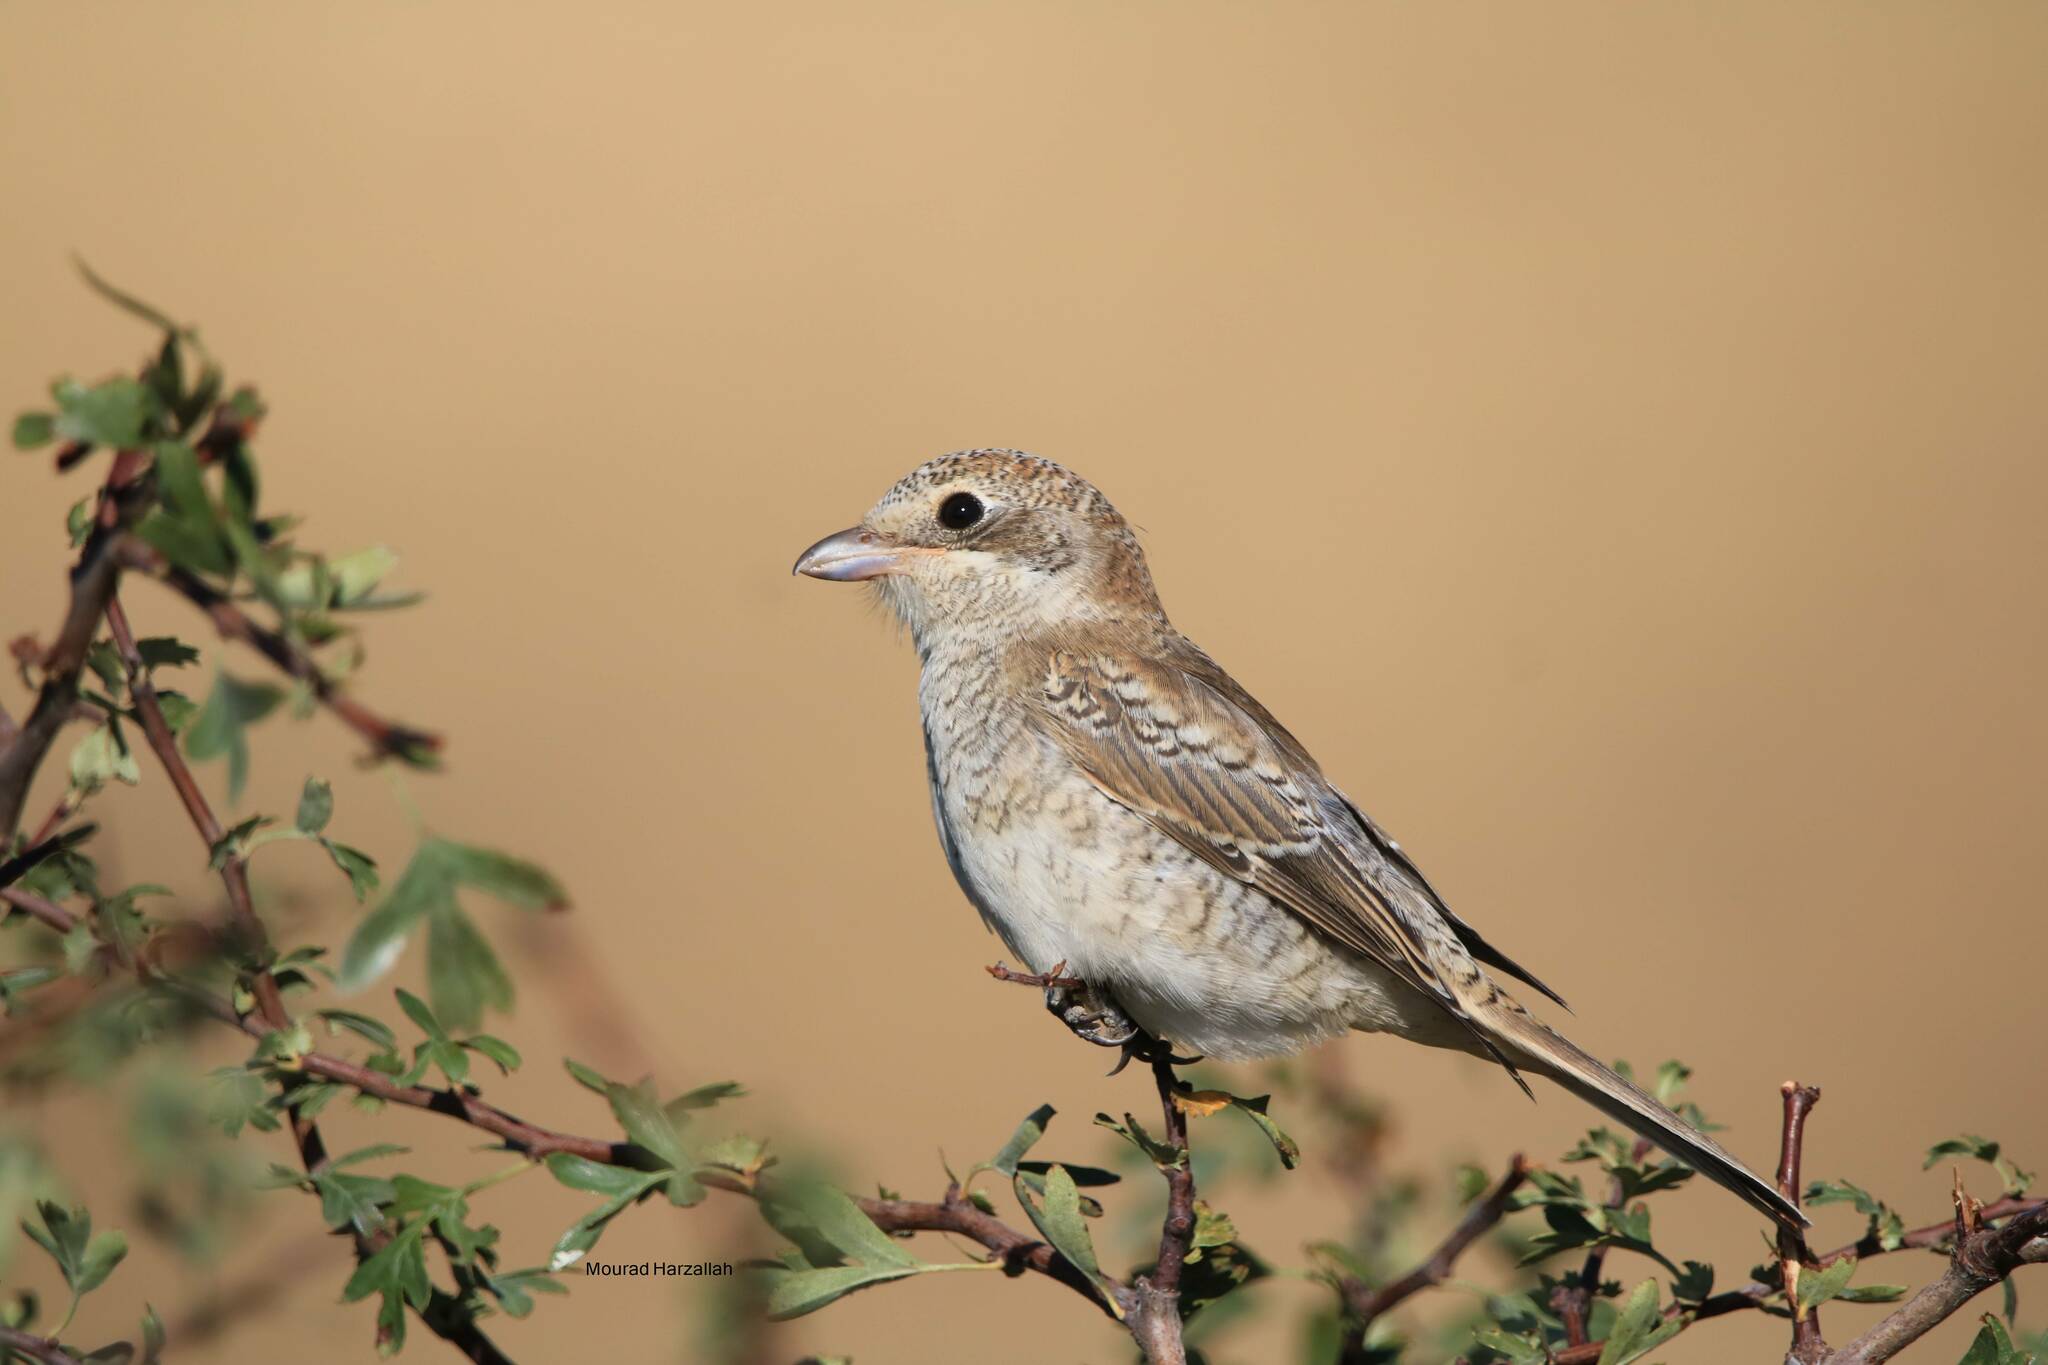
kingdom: Animalia
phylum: Chordata
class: Aves
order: Passeriformes
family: Laniidae
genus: Lanius
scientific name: Lanius senator
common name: Woodchat shrike
